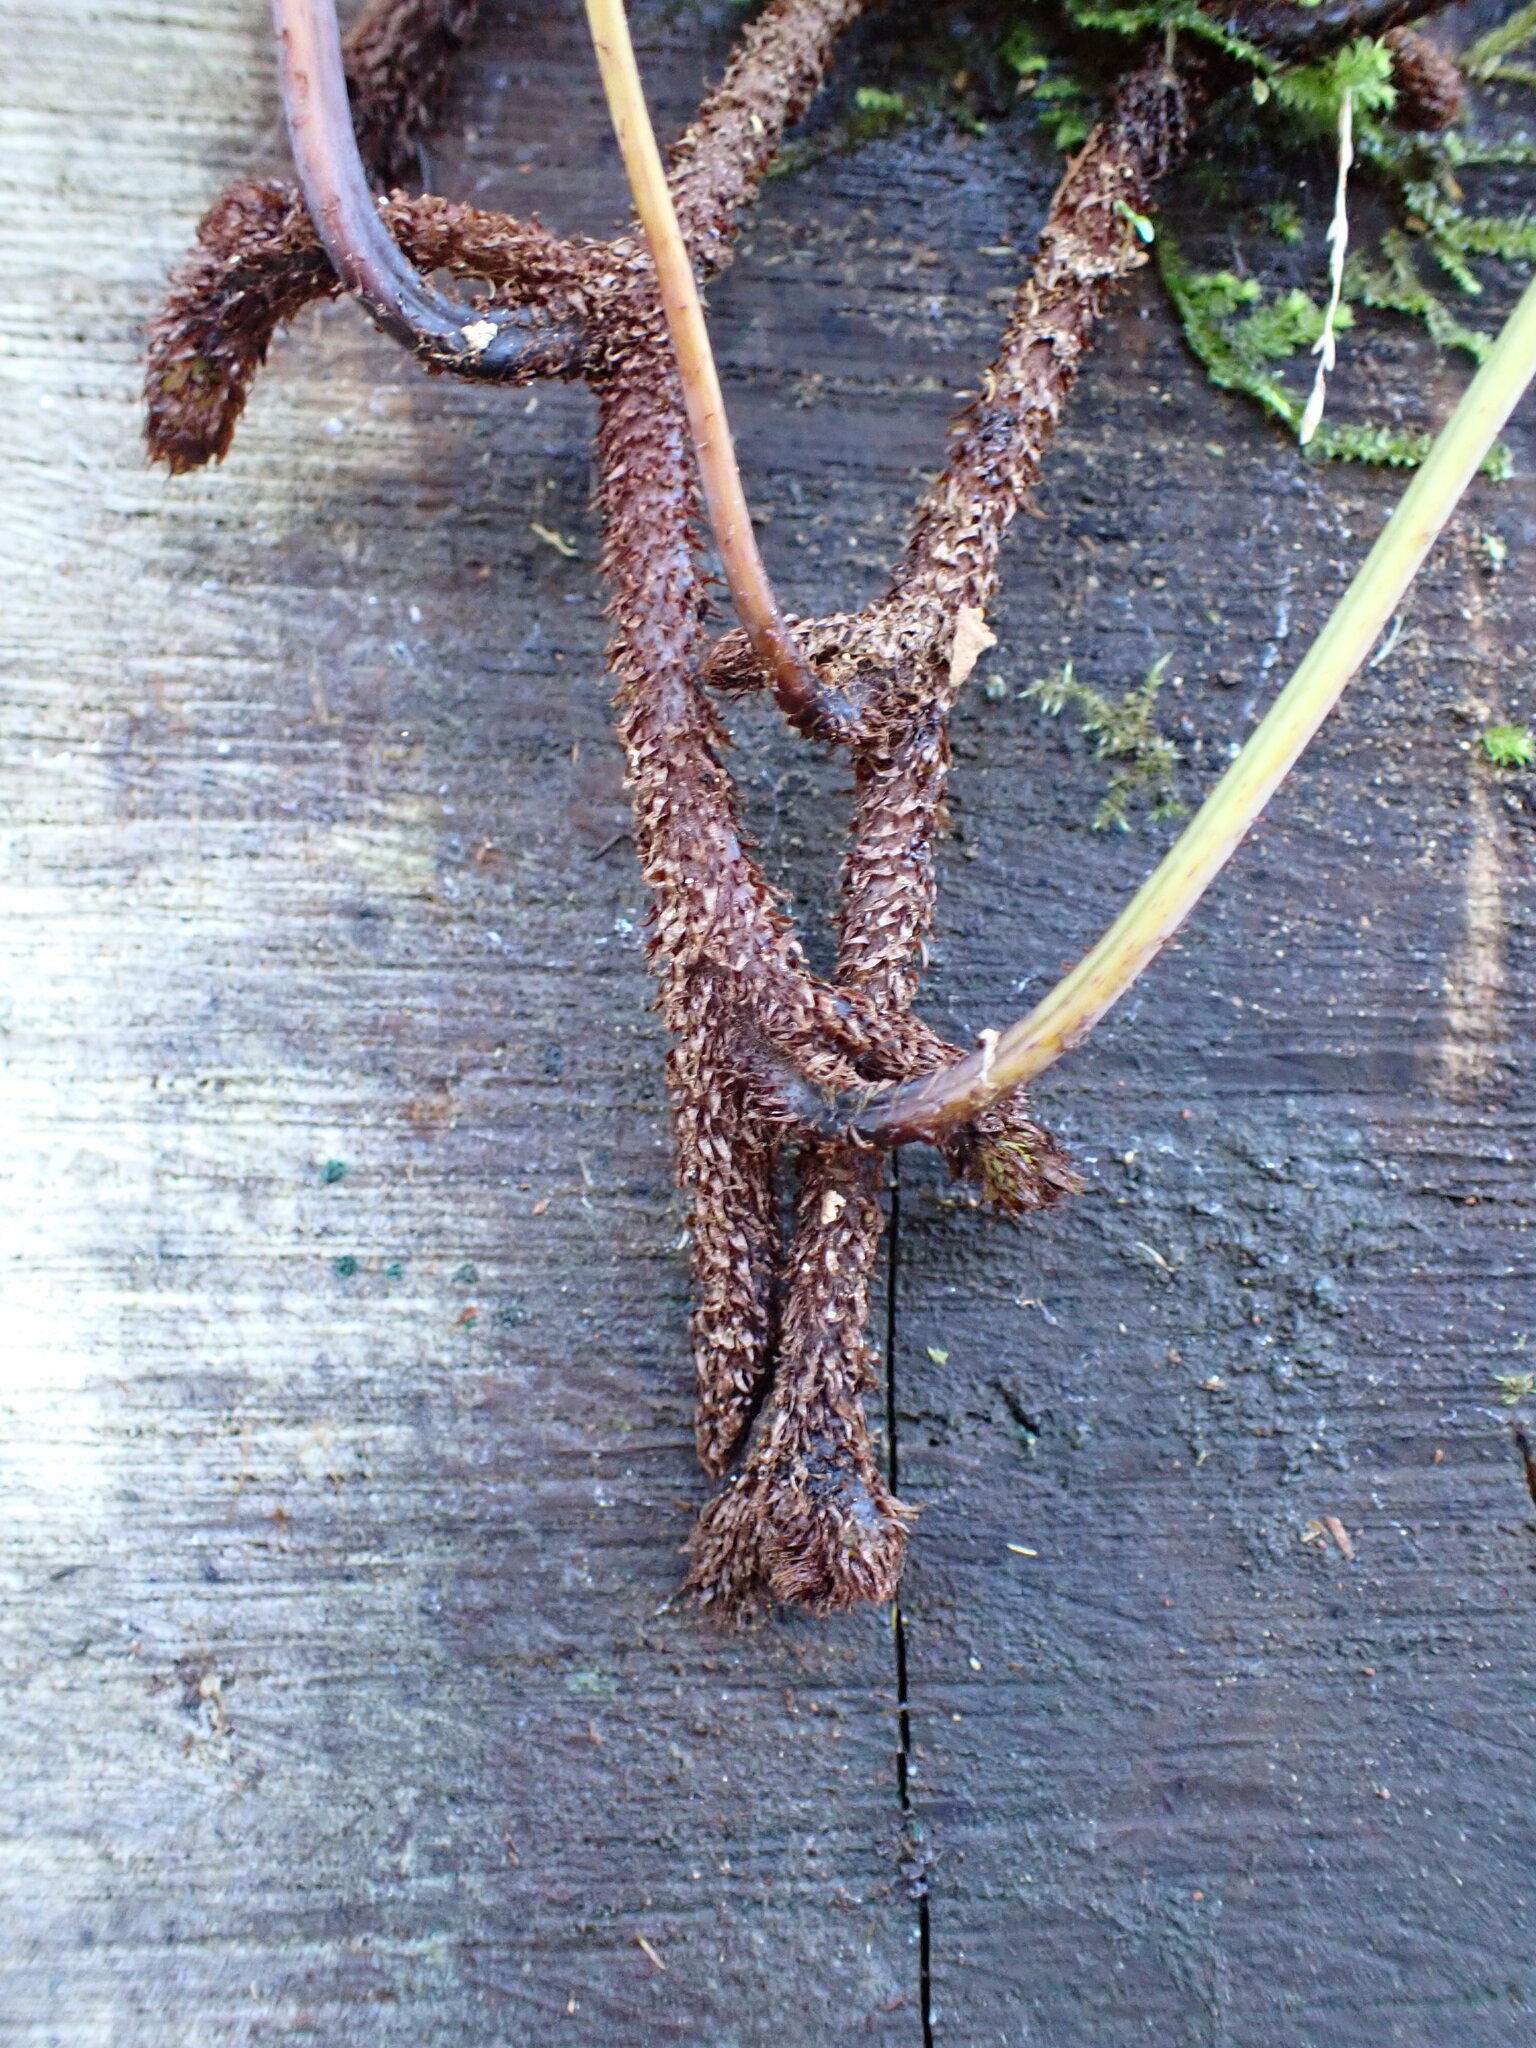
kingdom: Plantae
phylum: Tracheophyta
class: Polypodiopsida
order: Polypodiales
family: Dennstaedtiaceae
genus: Histiopteris
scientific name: Histiopteris incisa
